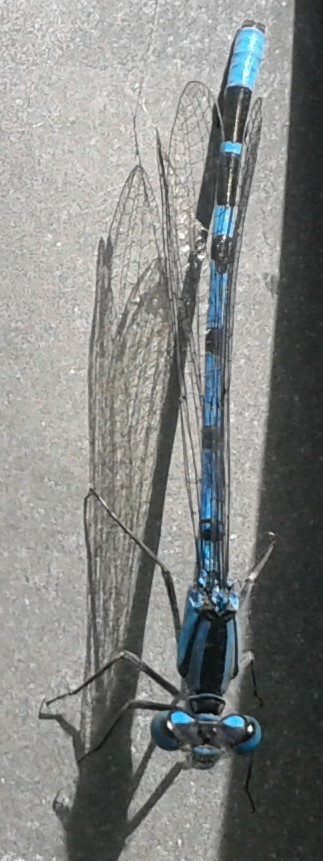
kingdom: Animalia
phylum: Arthropoda
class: Insecta
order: Odonata
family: Coenagrionidae
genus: Enallagma
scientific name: Enallagma cyathigerum
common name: Common blue damselfly
